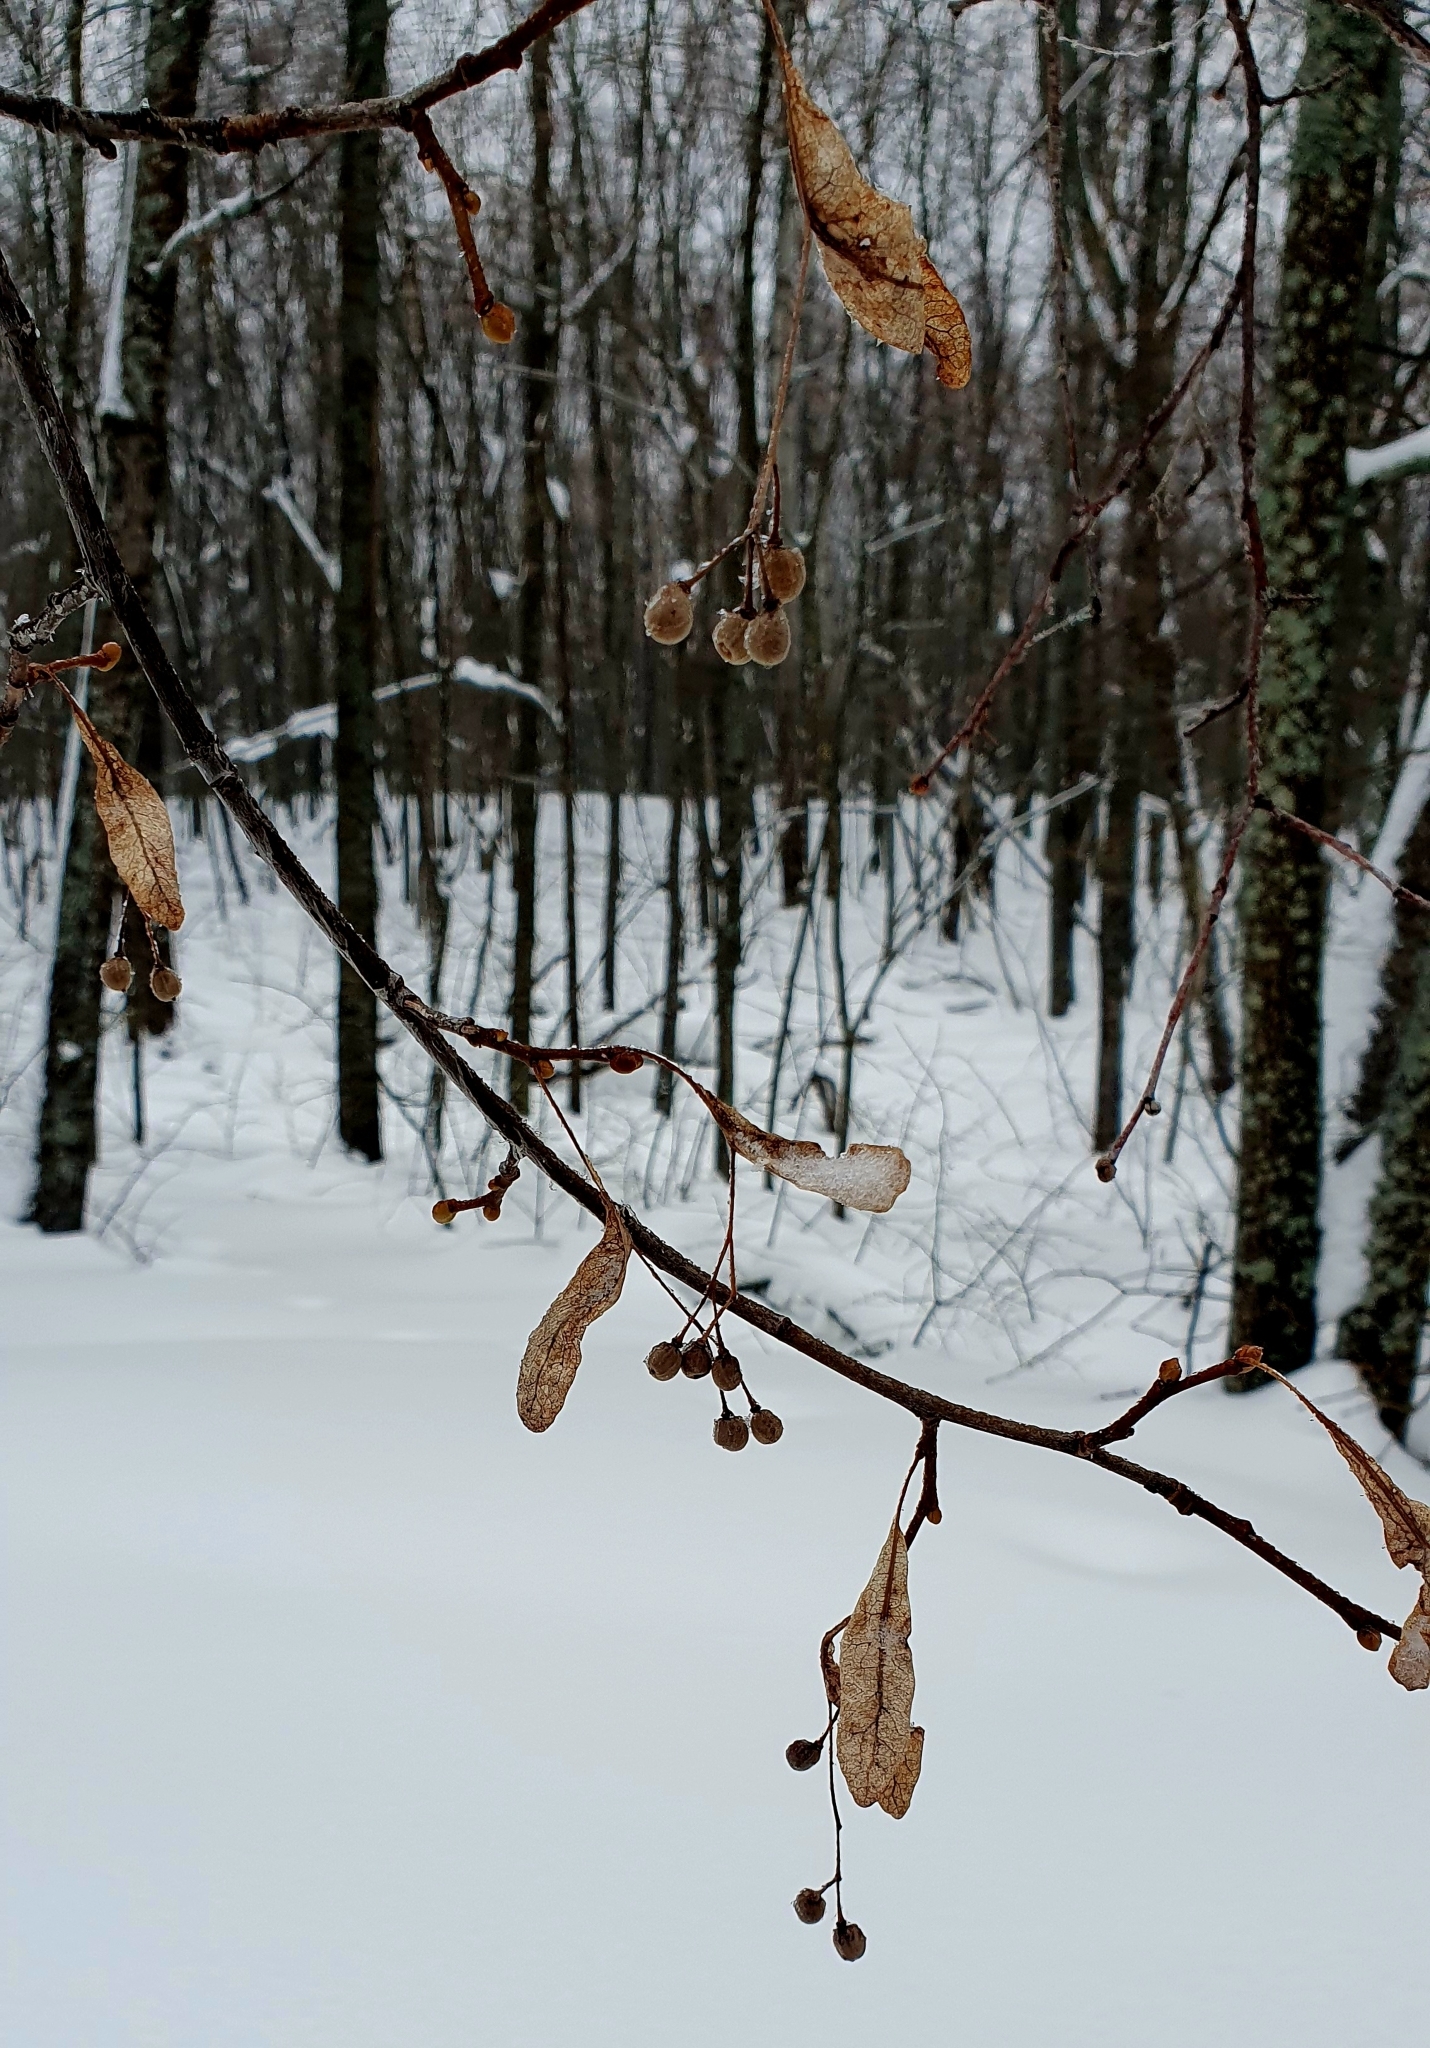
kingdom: Plantae
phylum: Tracheophyta
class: Magnoliopsida
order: Malvales
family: Malvaceae
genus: Tilia
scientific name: Tilia cordata
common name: Small-leaved lime
